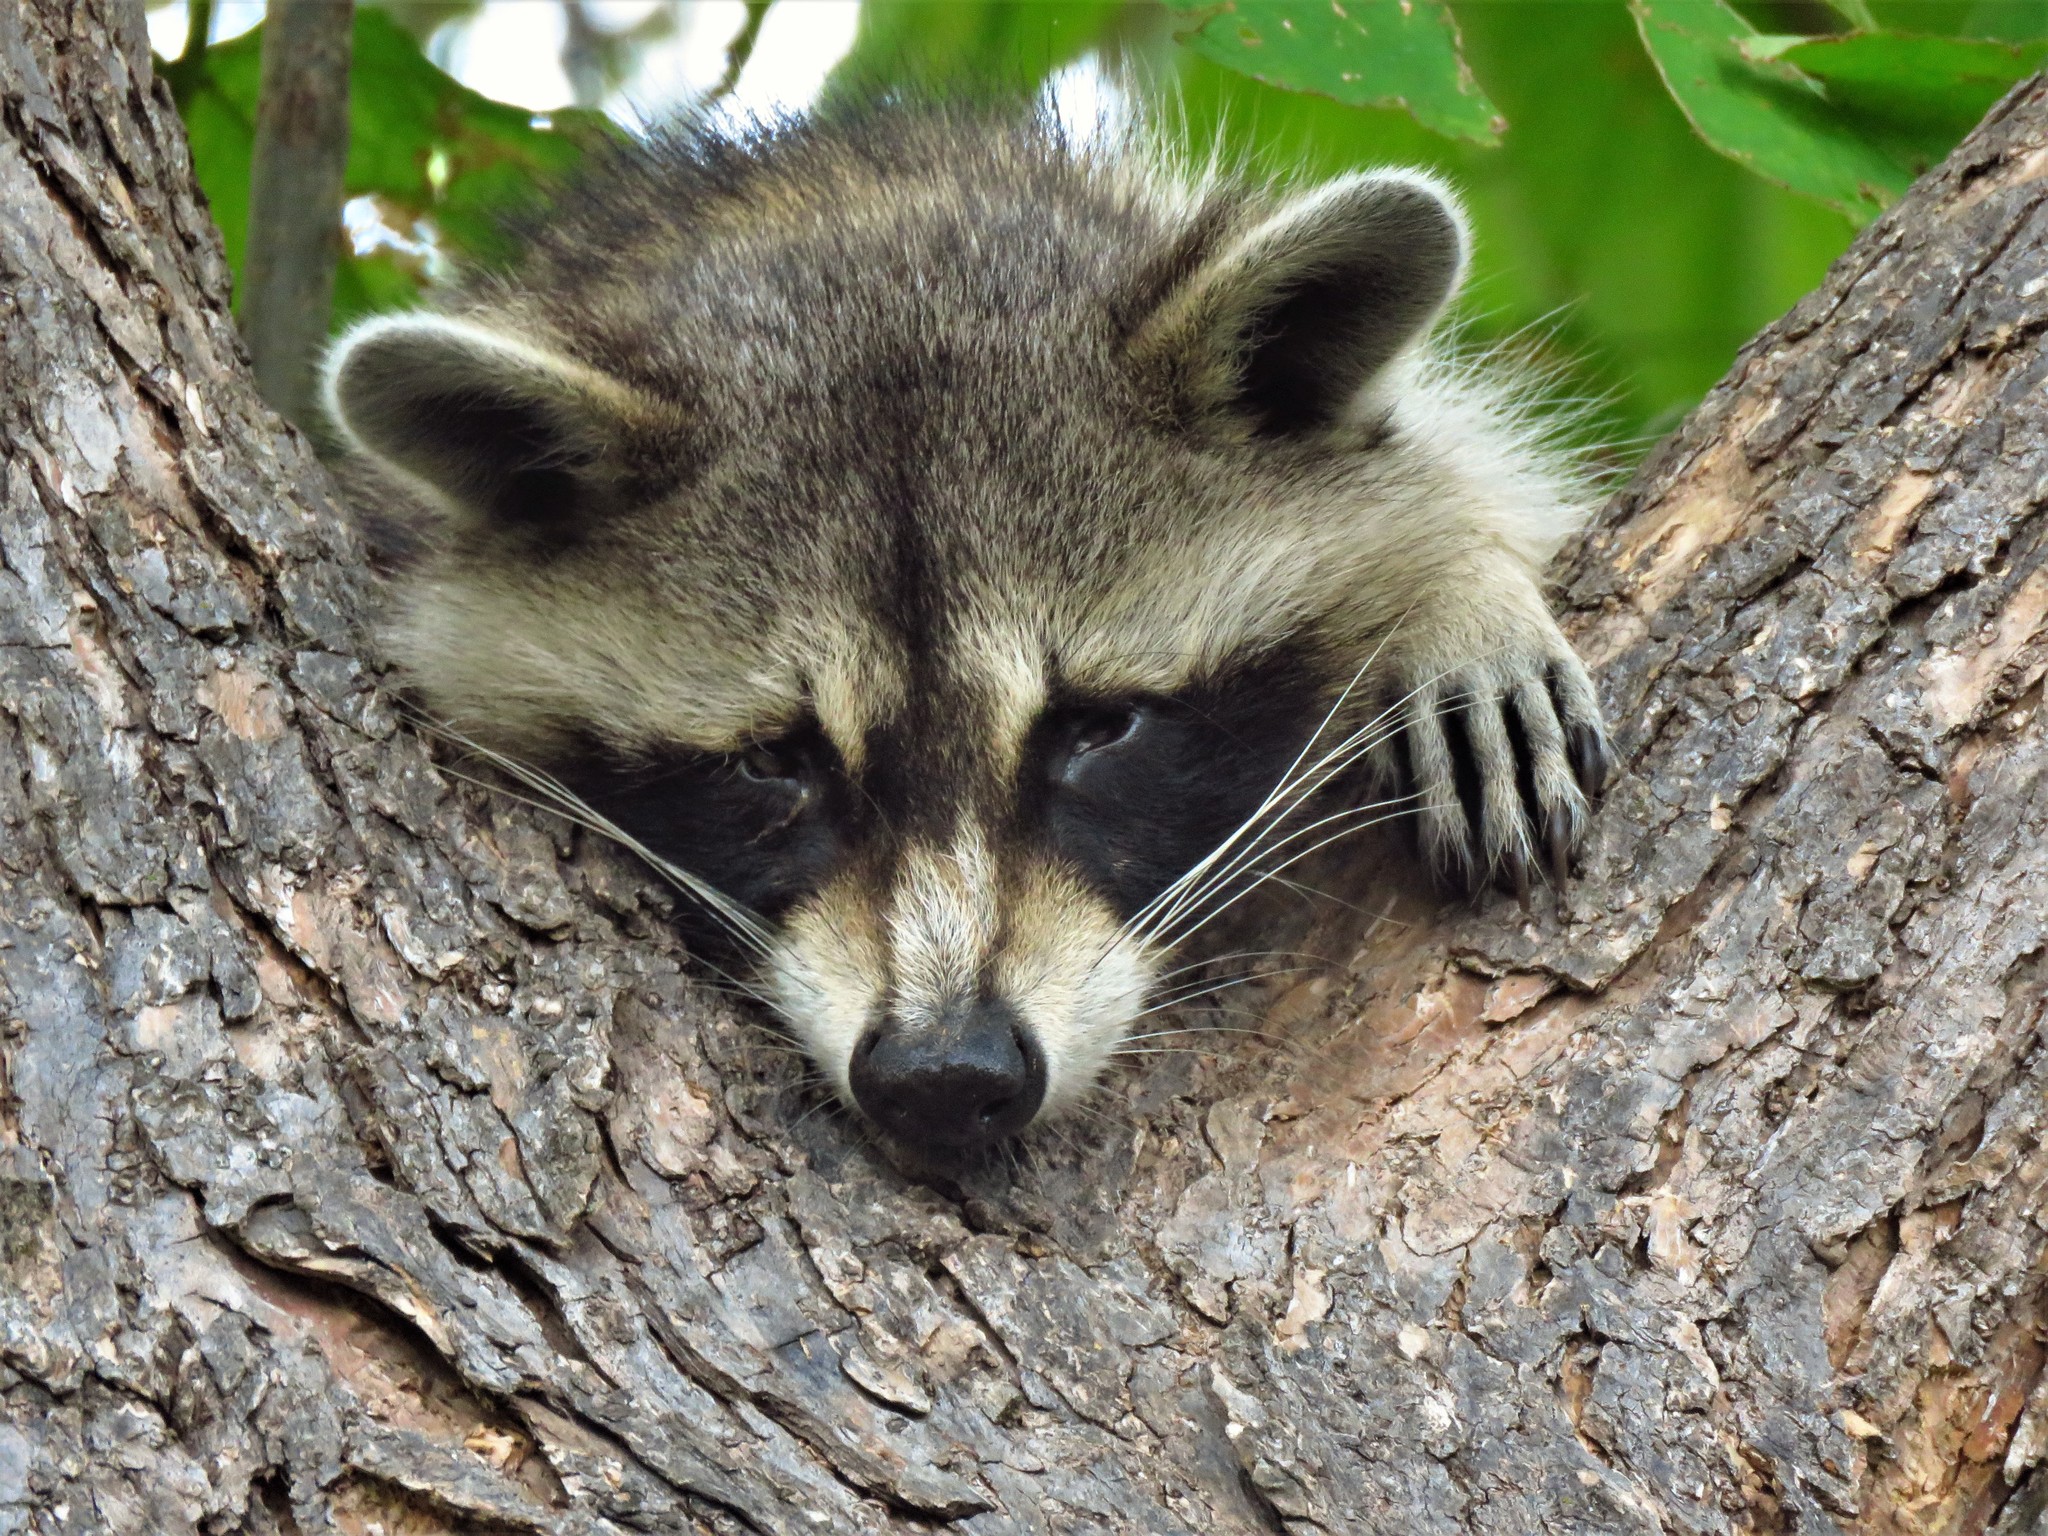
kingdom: Animalia
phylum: Chordata
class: Mammalia
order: Carnivora
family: Procyonidae
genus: Procyon
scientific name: Procyon lotor
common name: Raccoon
